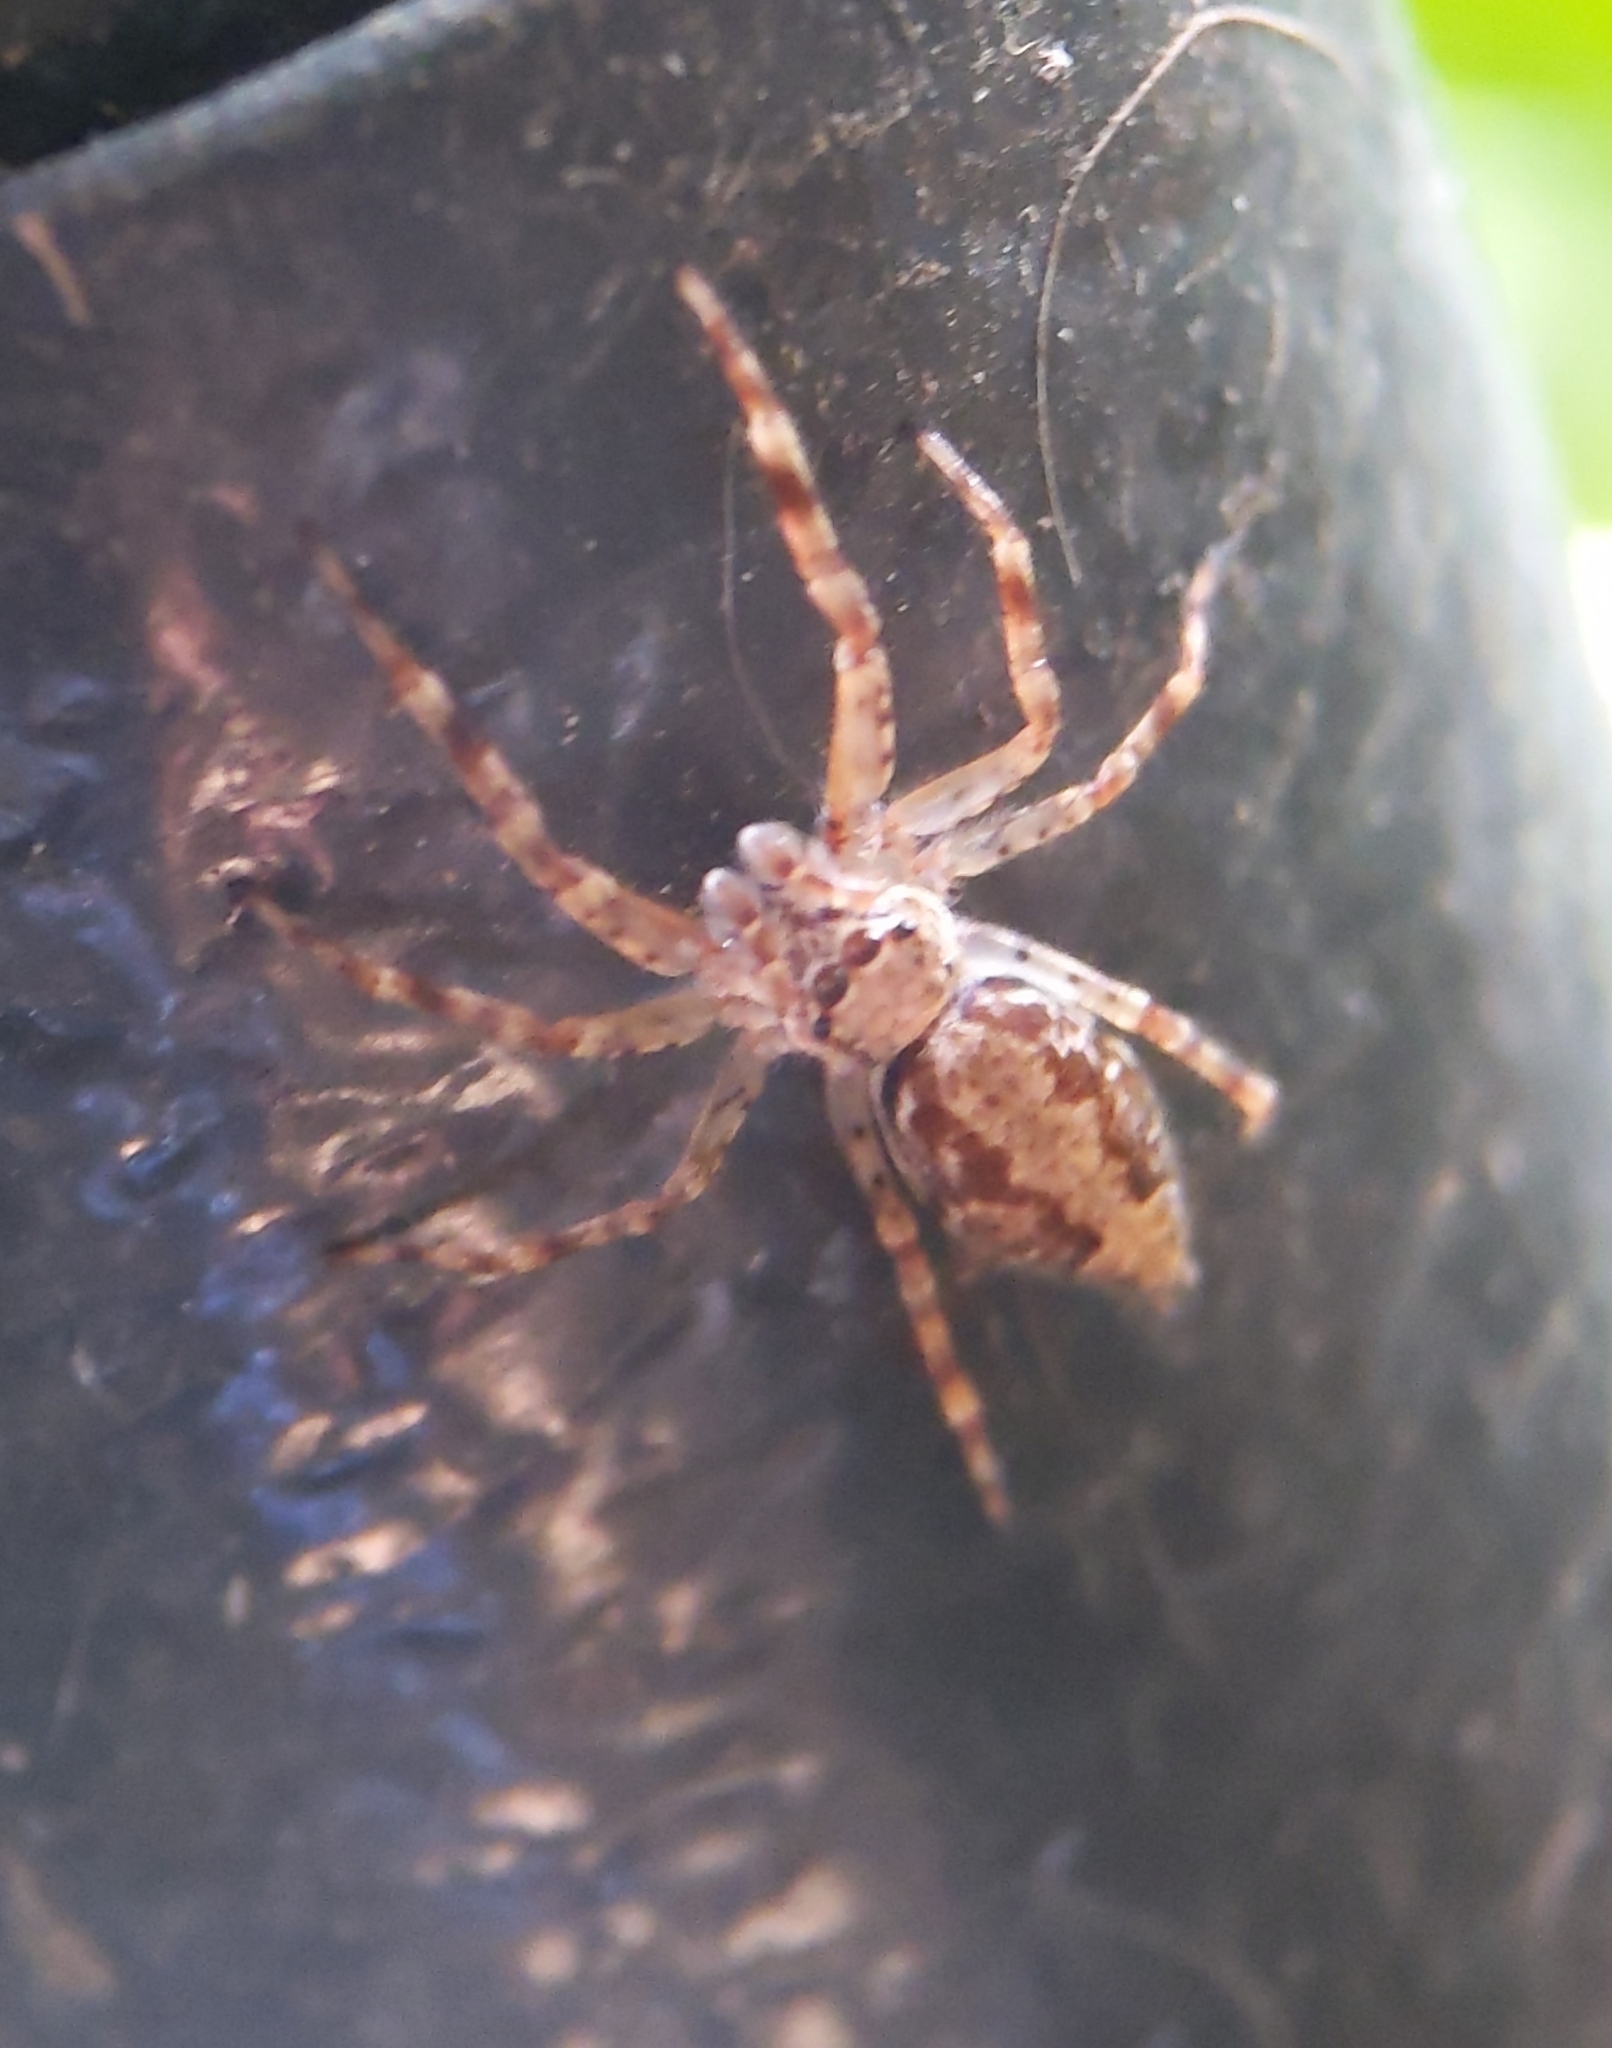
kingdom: Animalia
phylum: Arthropoda
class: Arachnida
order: Araneae
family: Salticidae
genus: Helpis
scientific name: Helpis minitabunda
